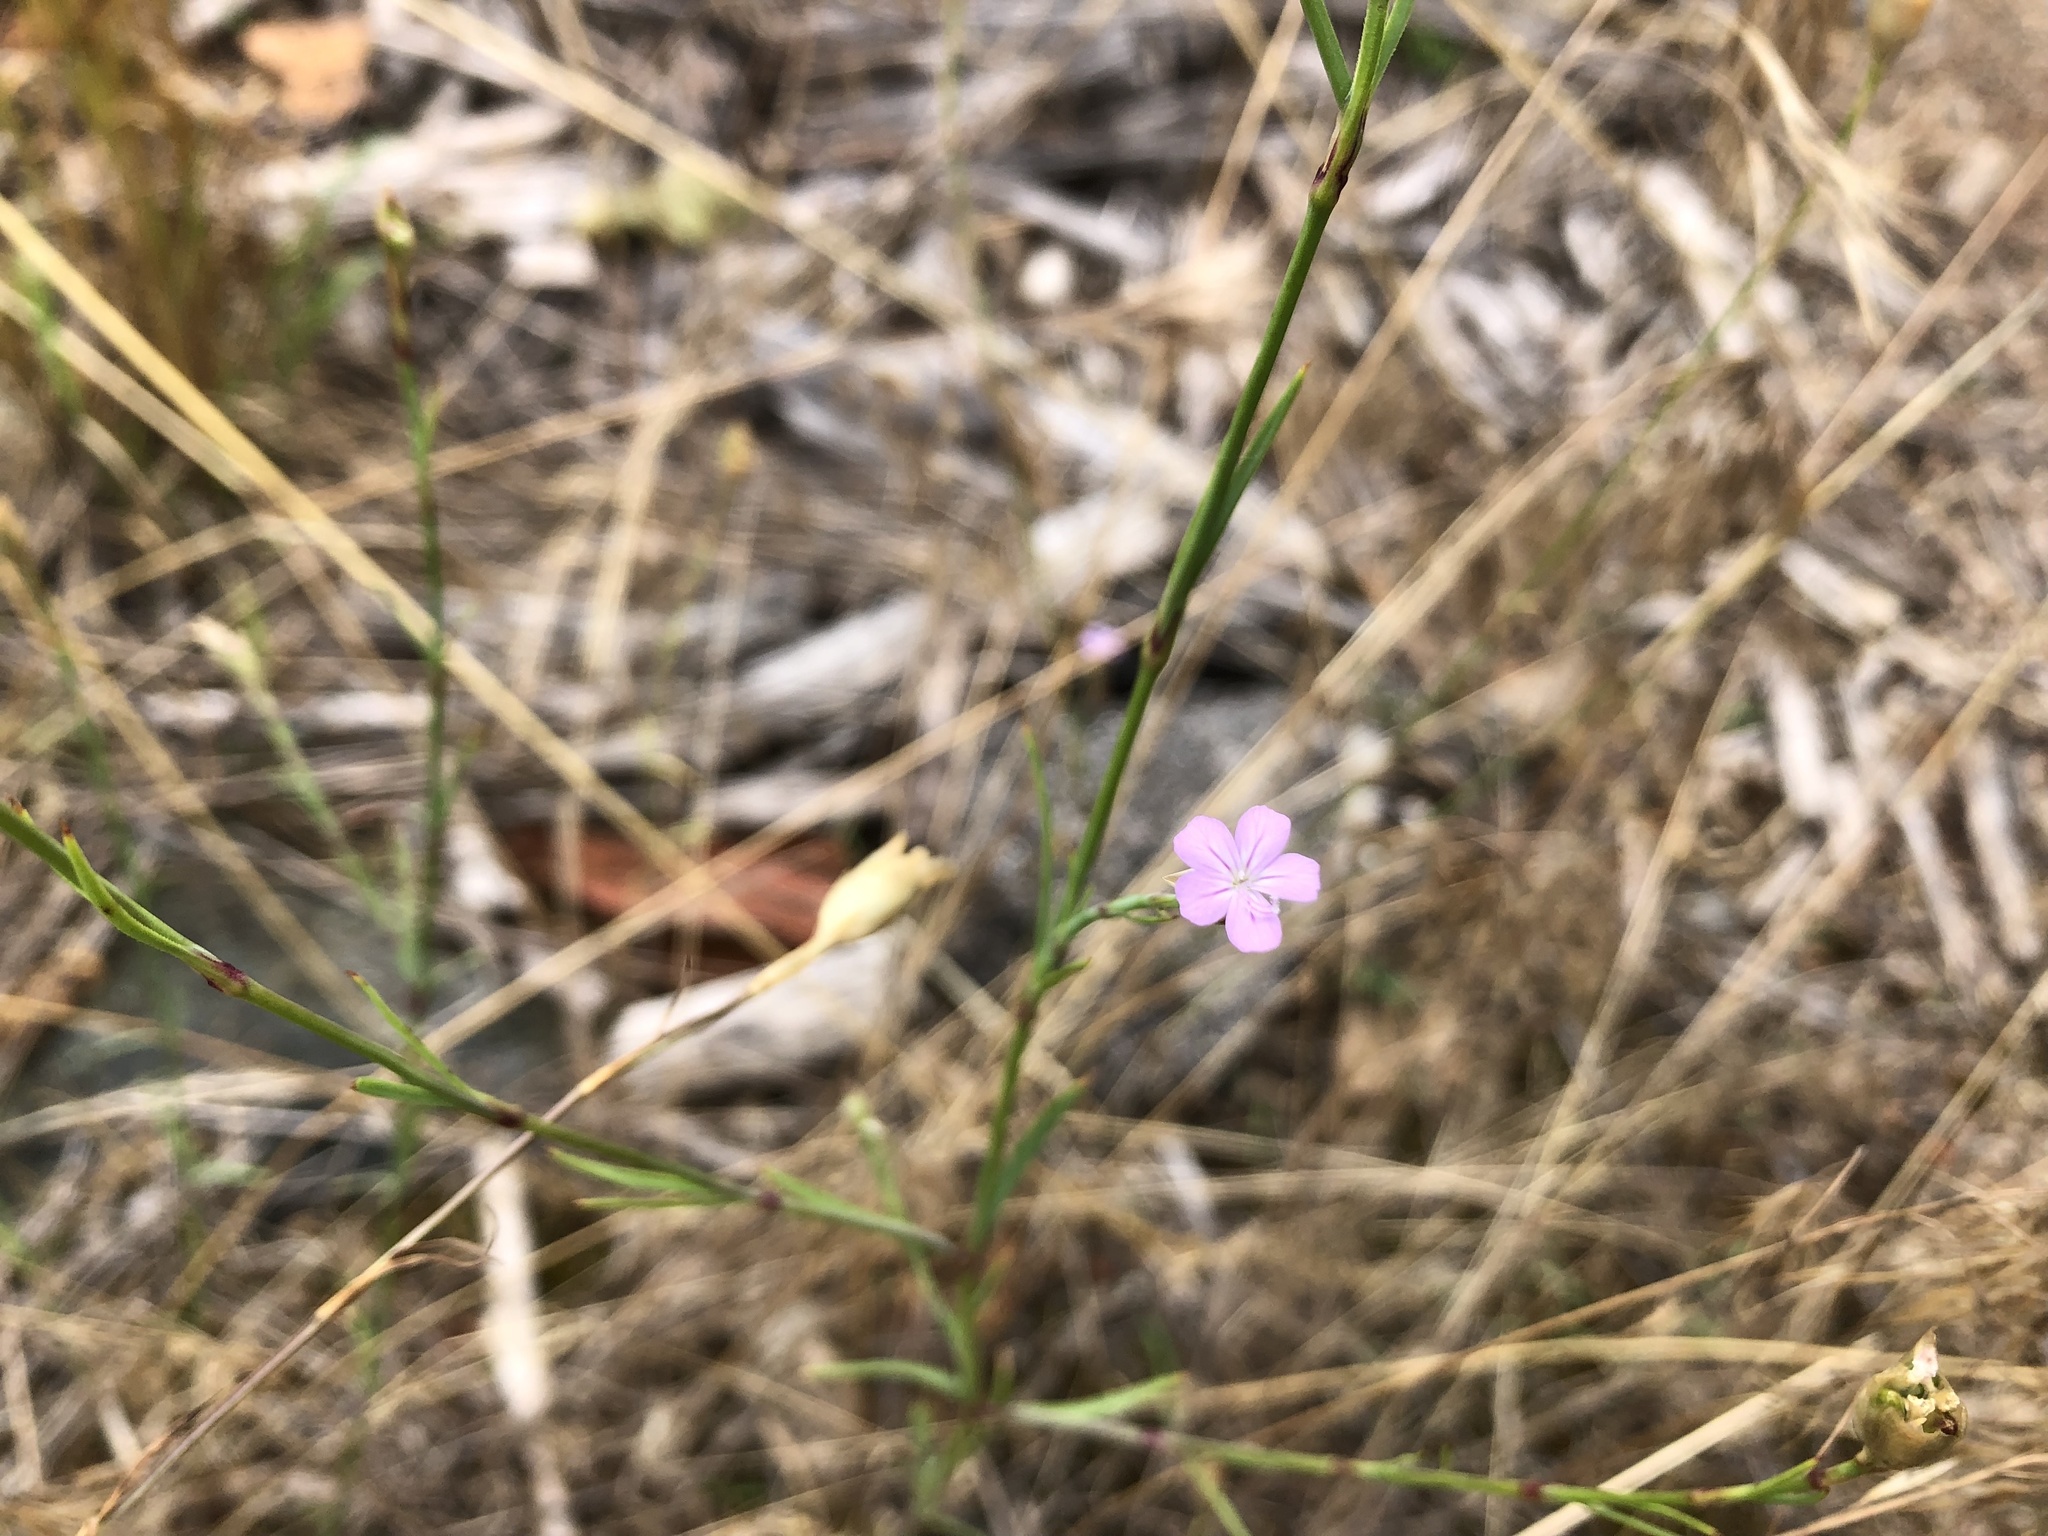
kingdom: Plantae
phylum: Tracheophyta
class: Magnoliopsida
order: Caryophyllales
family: Caryophyllaceae
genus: Petrorhagia
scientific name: Petrorhagia prolifera
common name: Proliferous pink
